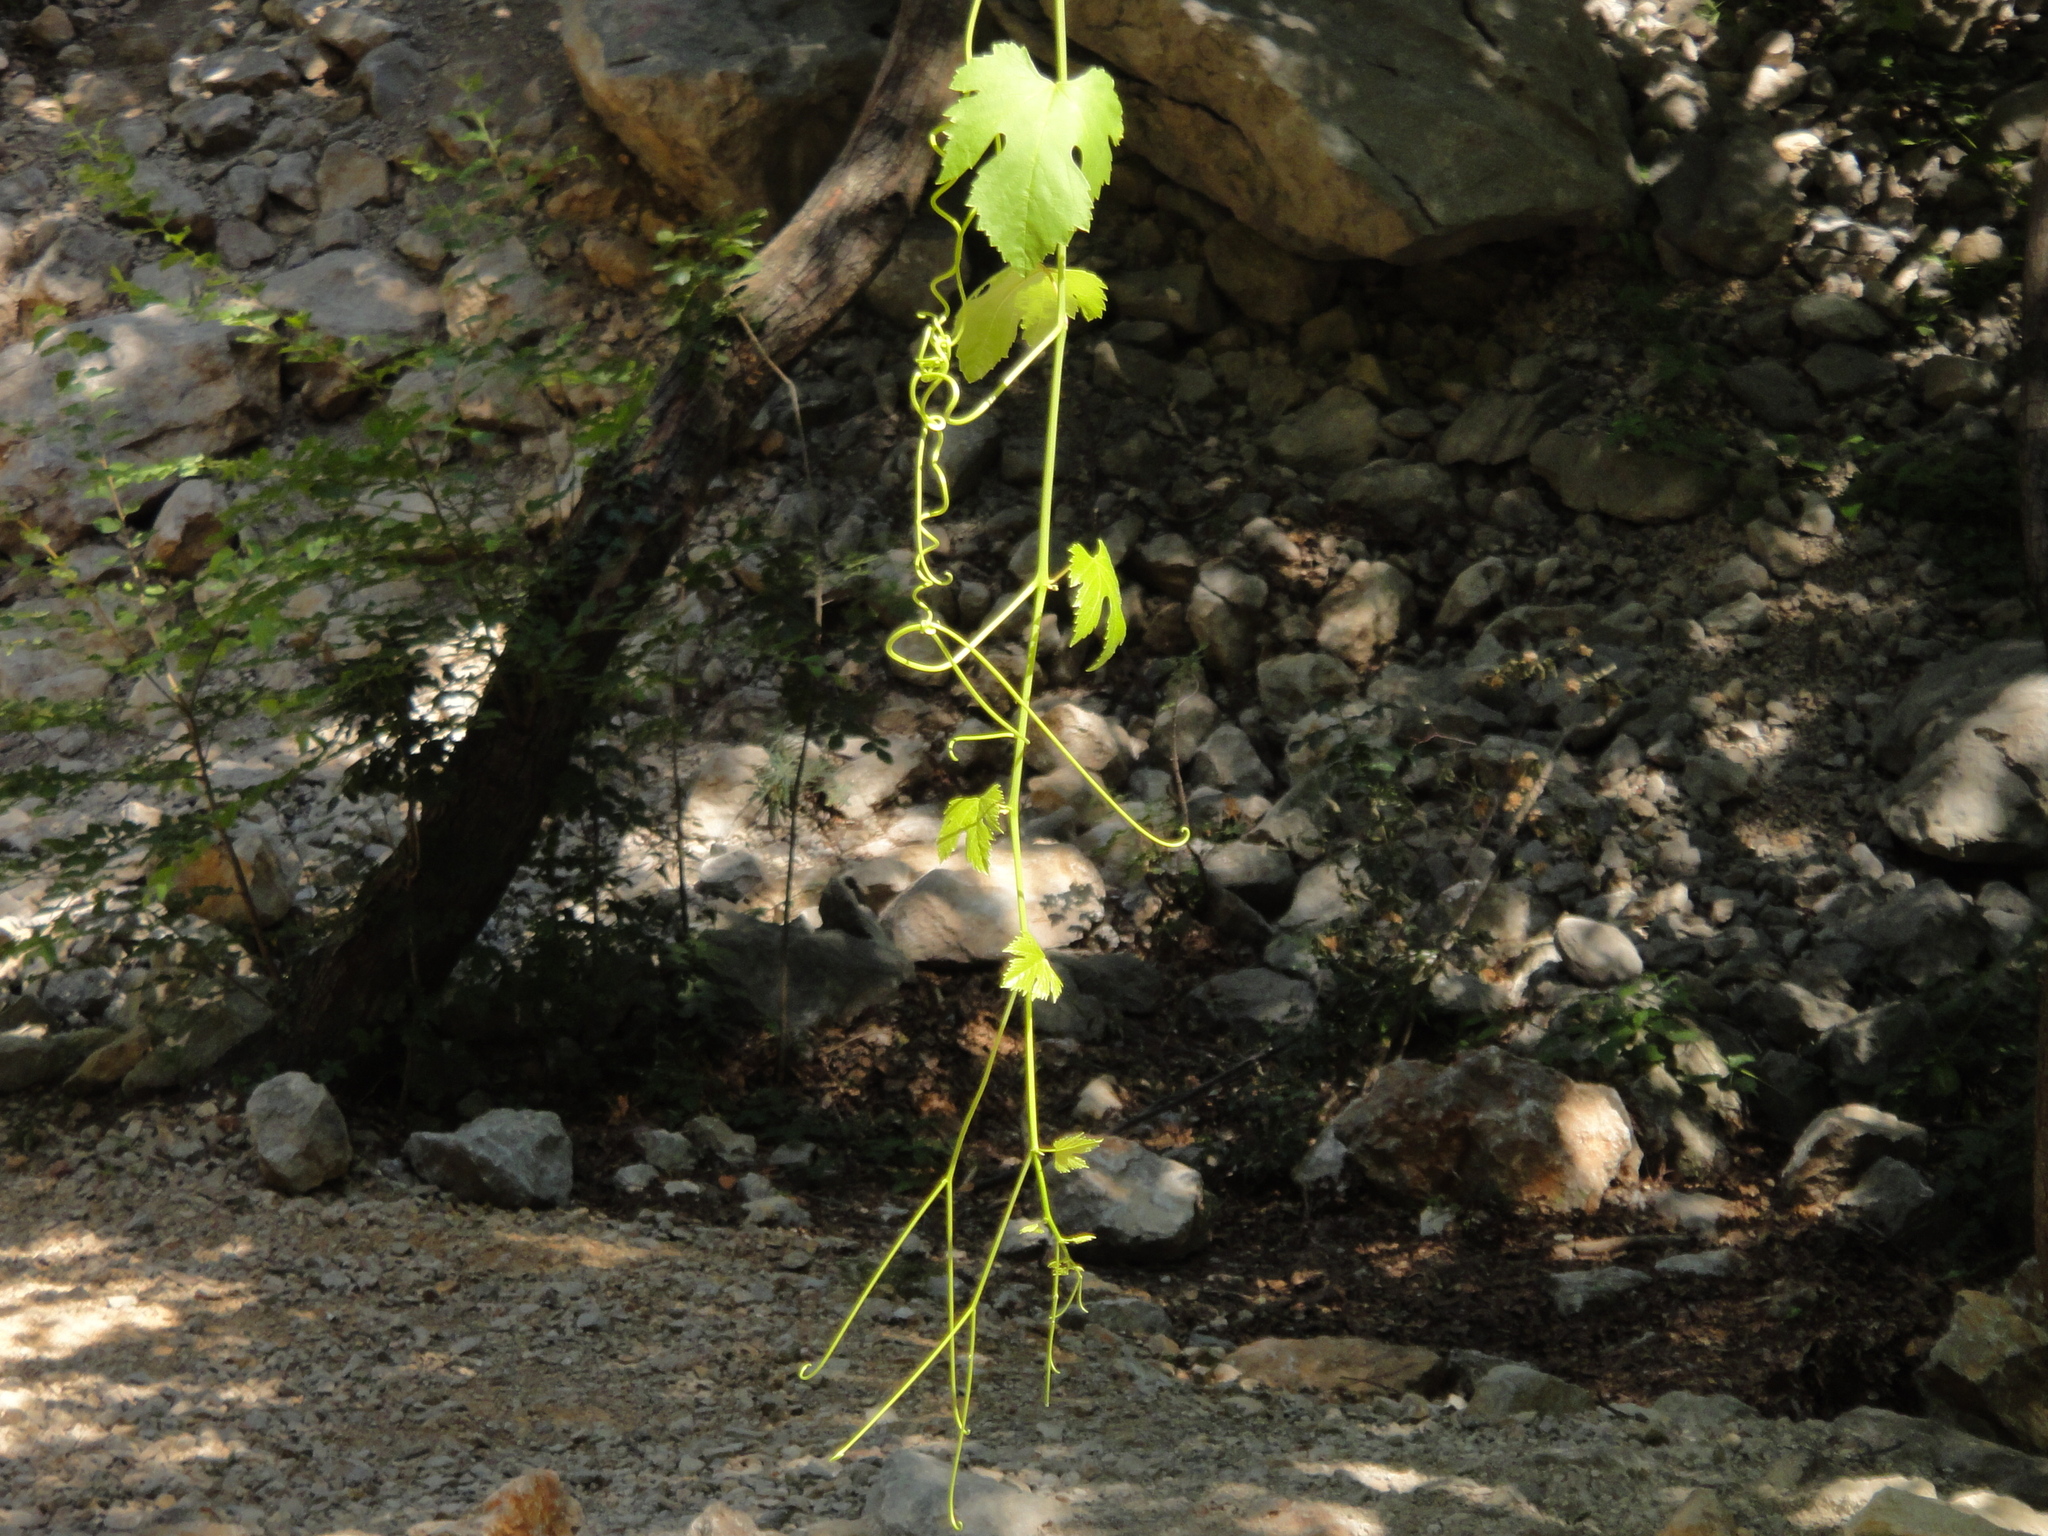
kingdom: Plantae
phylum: Tracheophyta
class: Magnoliopsida
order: Vitales
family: Vitaceae
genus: Vitis
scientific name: Vitis gmelinii
